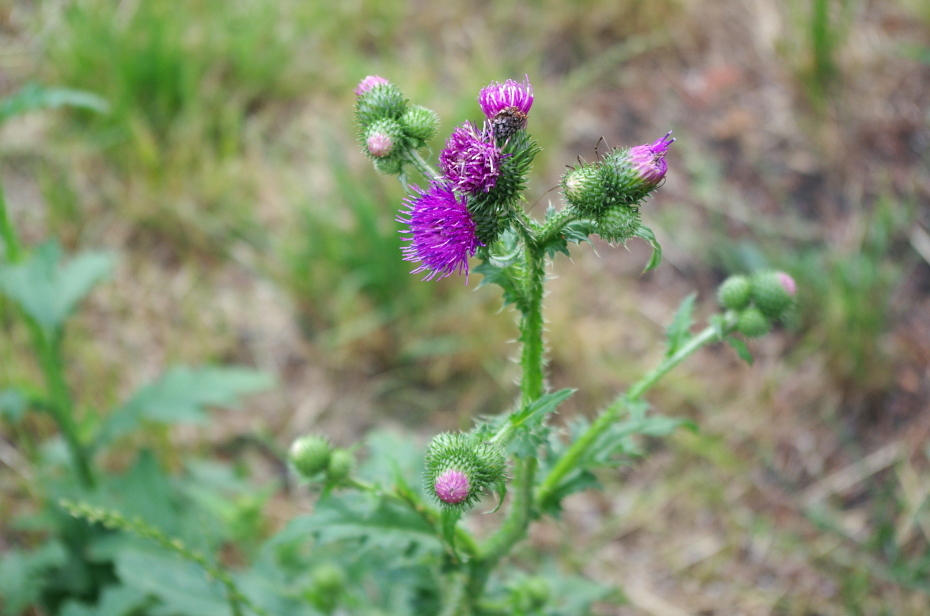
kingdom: Plantae
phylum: Tracheophyta
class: Magnoliopsida
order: Asterales
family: Asteraceae
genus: Carduus
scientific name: Carduus crispus
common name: Welted thistle
